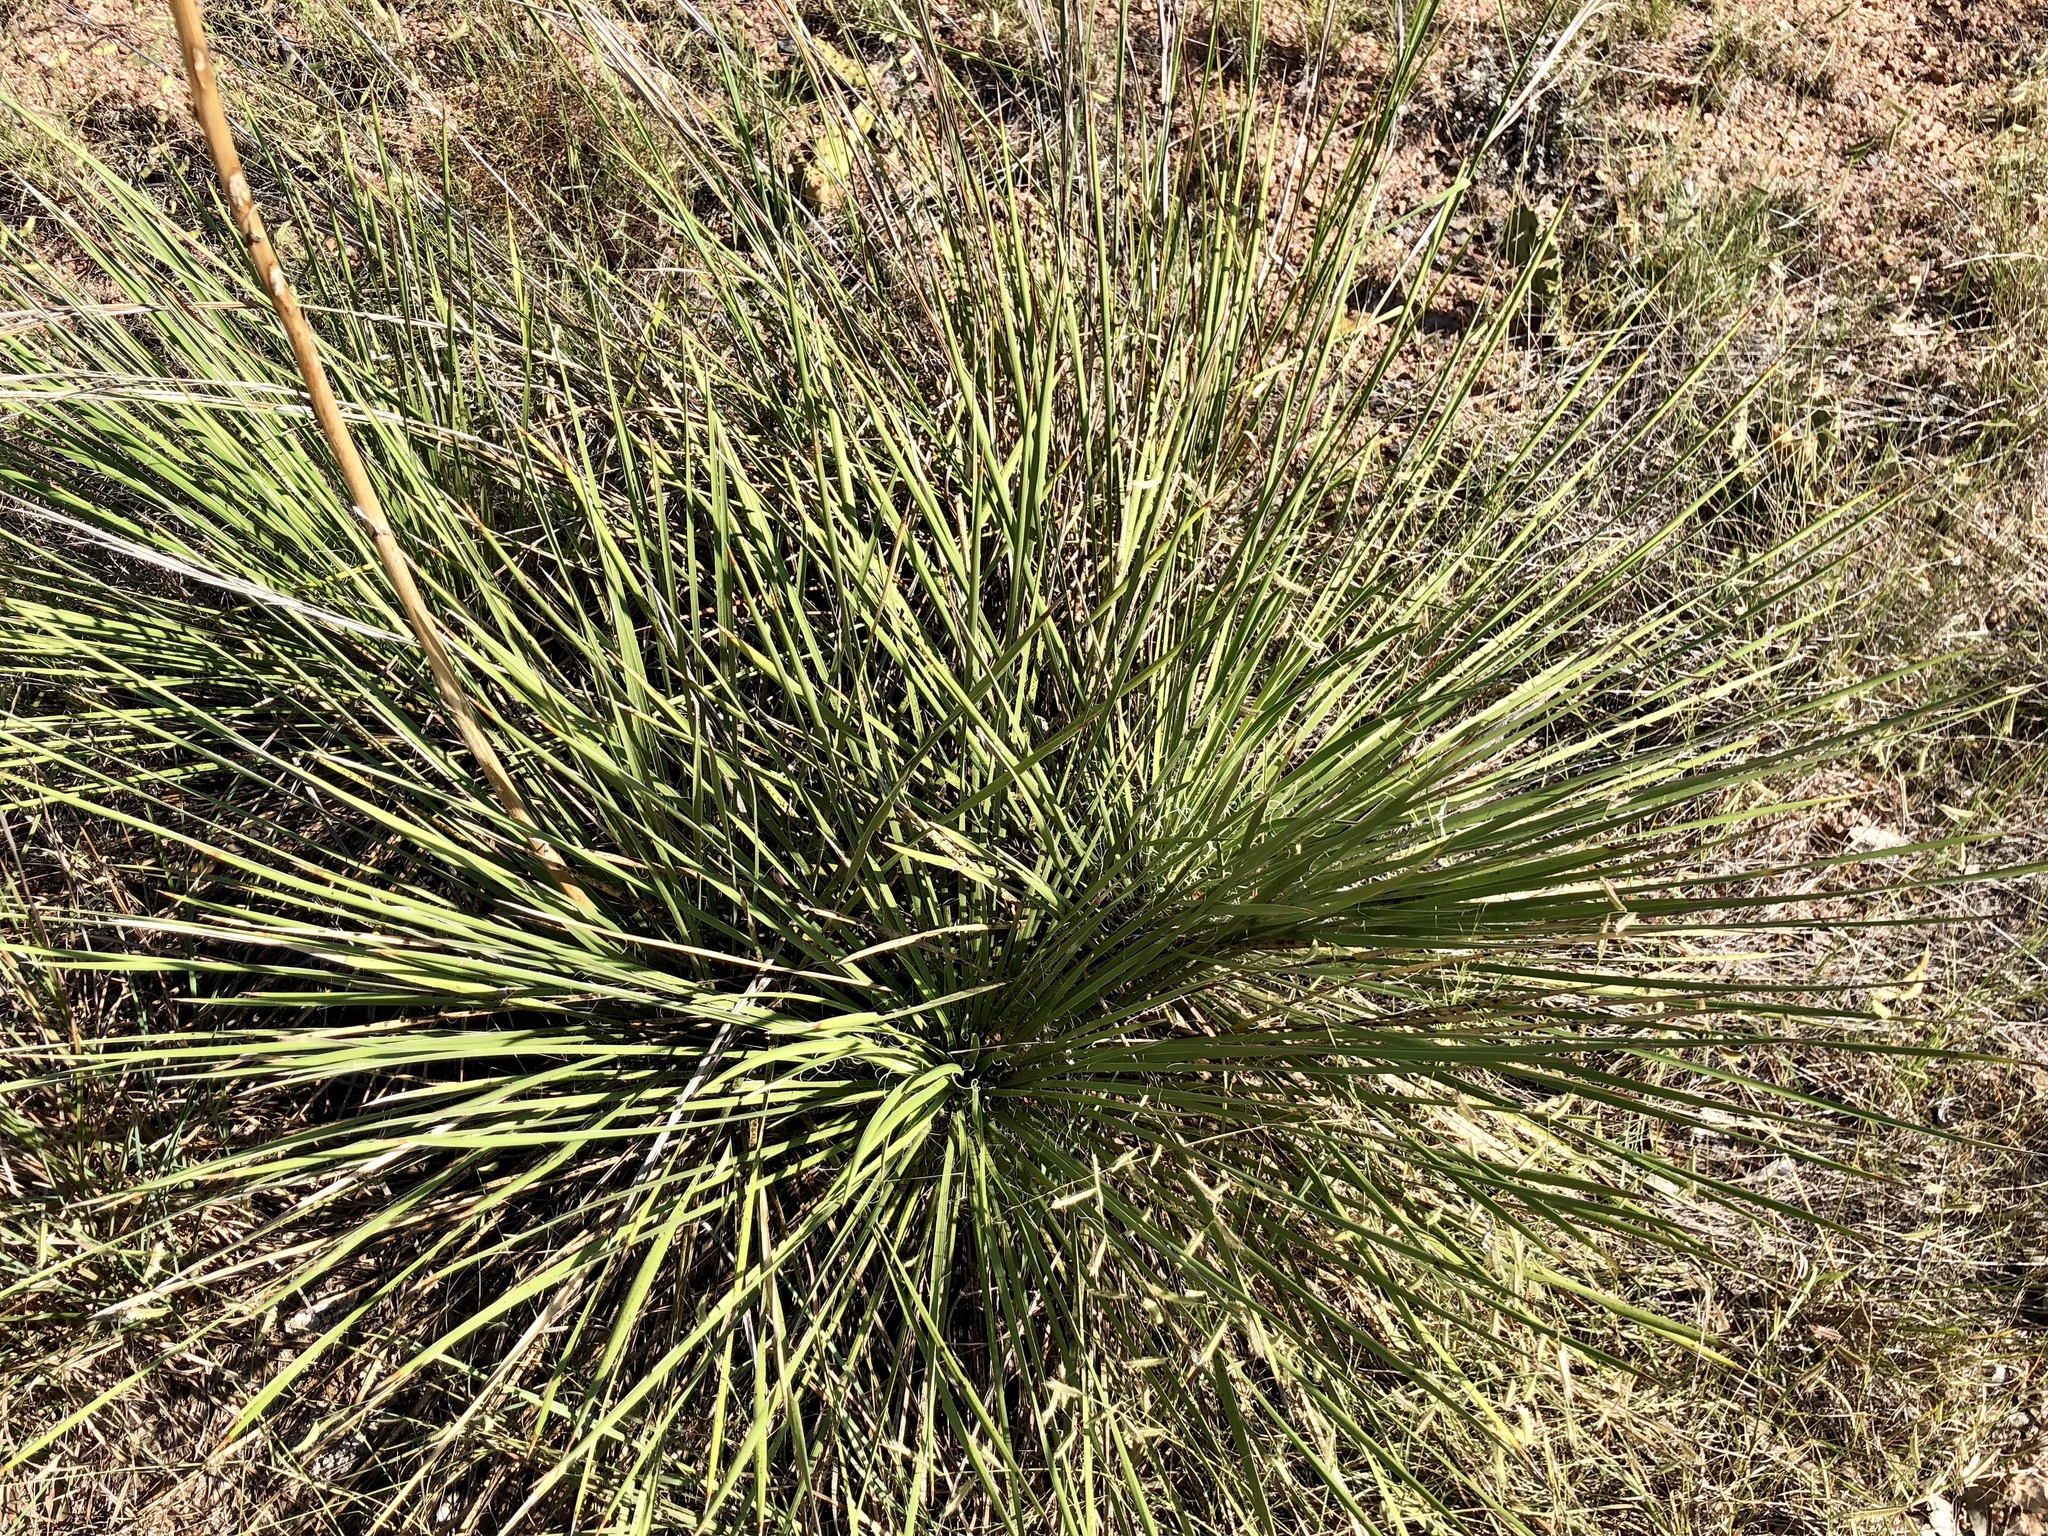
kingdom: Plantae
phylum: Tracheophyta
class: Liliopsida
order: Asparagales
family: Asparagaceae
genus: Yucca
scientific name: Yucca constricta
